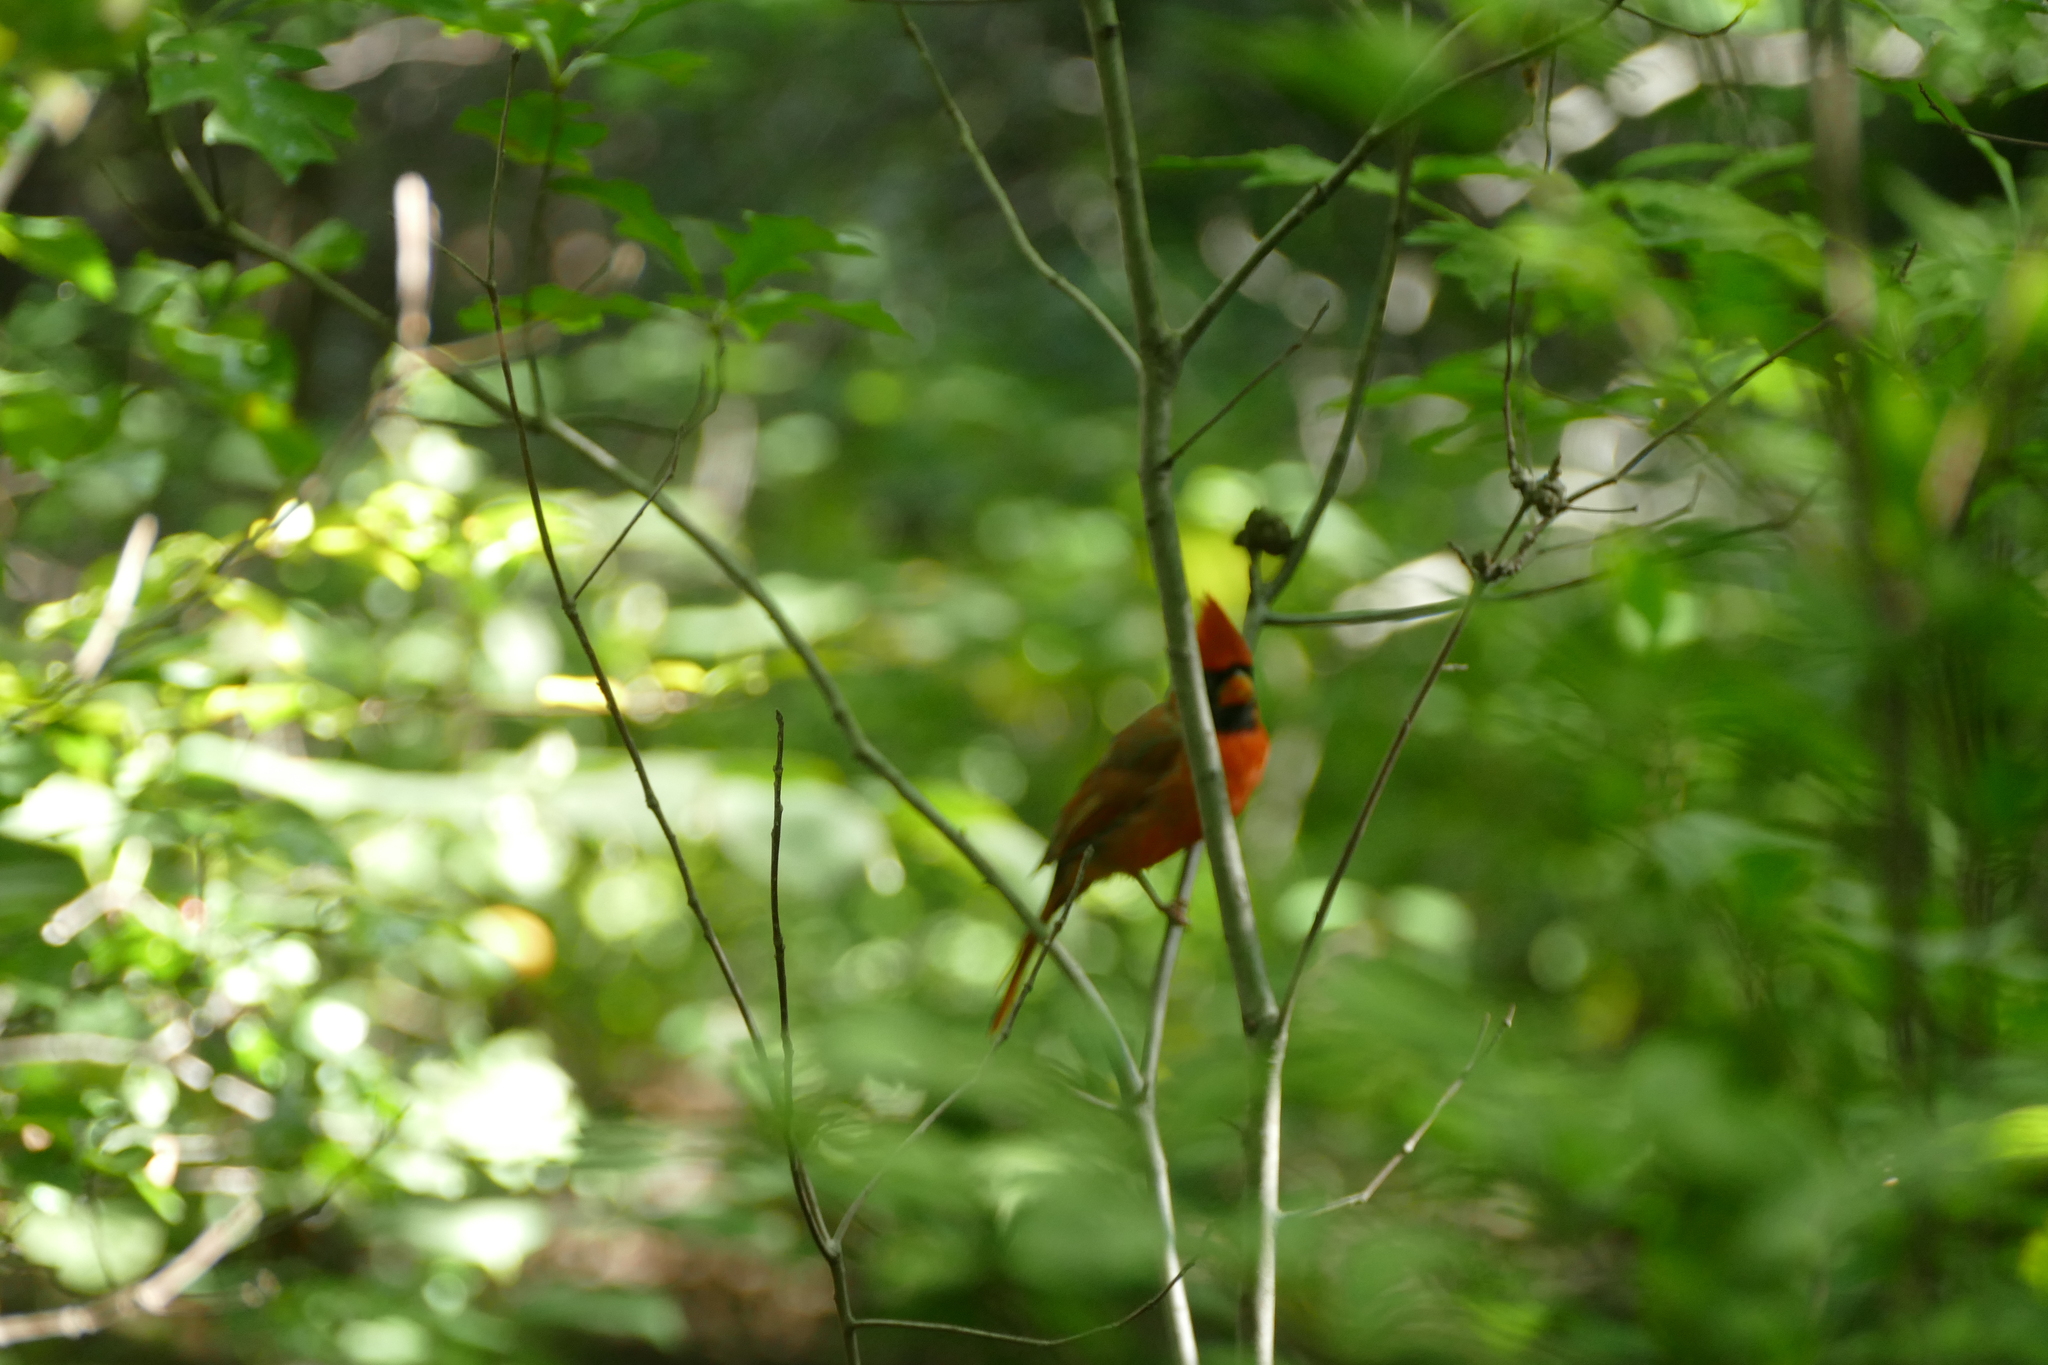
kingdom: Animalia
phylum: Chordata
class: Aves
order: Passeriformes
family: Cardinalidae
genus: Cardinalis
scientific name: Cardinalis cardinalis
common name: Northern cardinal
